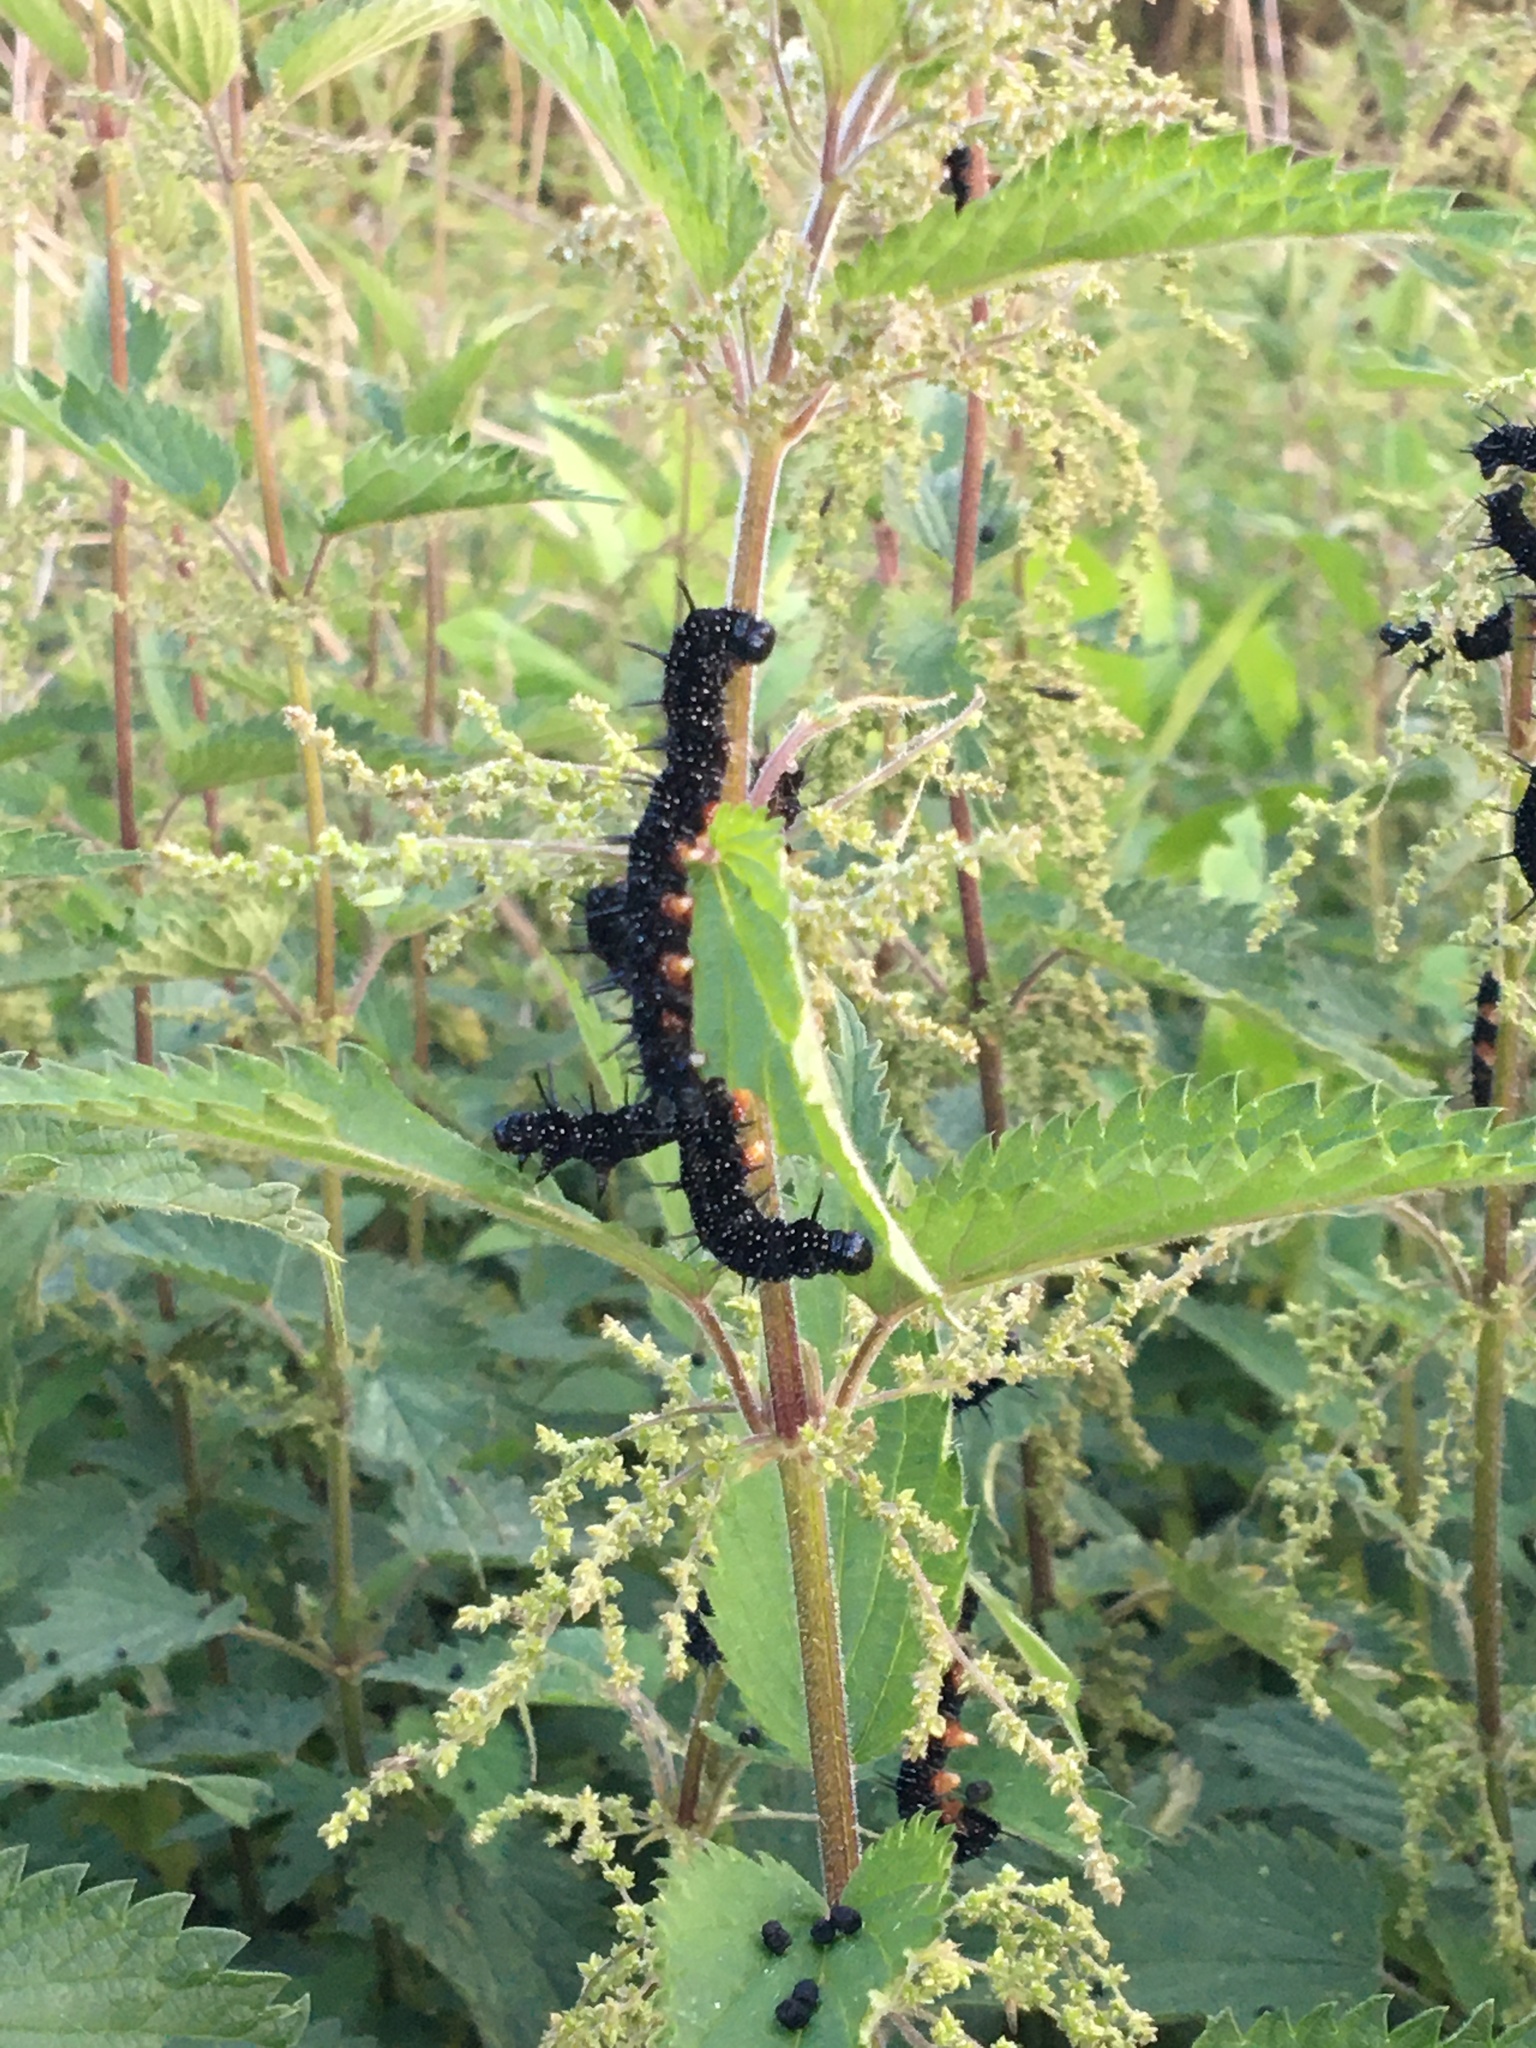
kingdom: Animalia
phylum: Arthropoda
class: Insecta
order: Lepidoptera
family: Nymphalidae
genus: Aglais
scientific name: Aglais io
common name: Peacock
